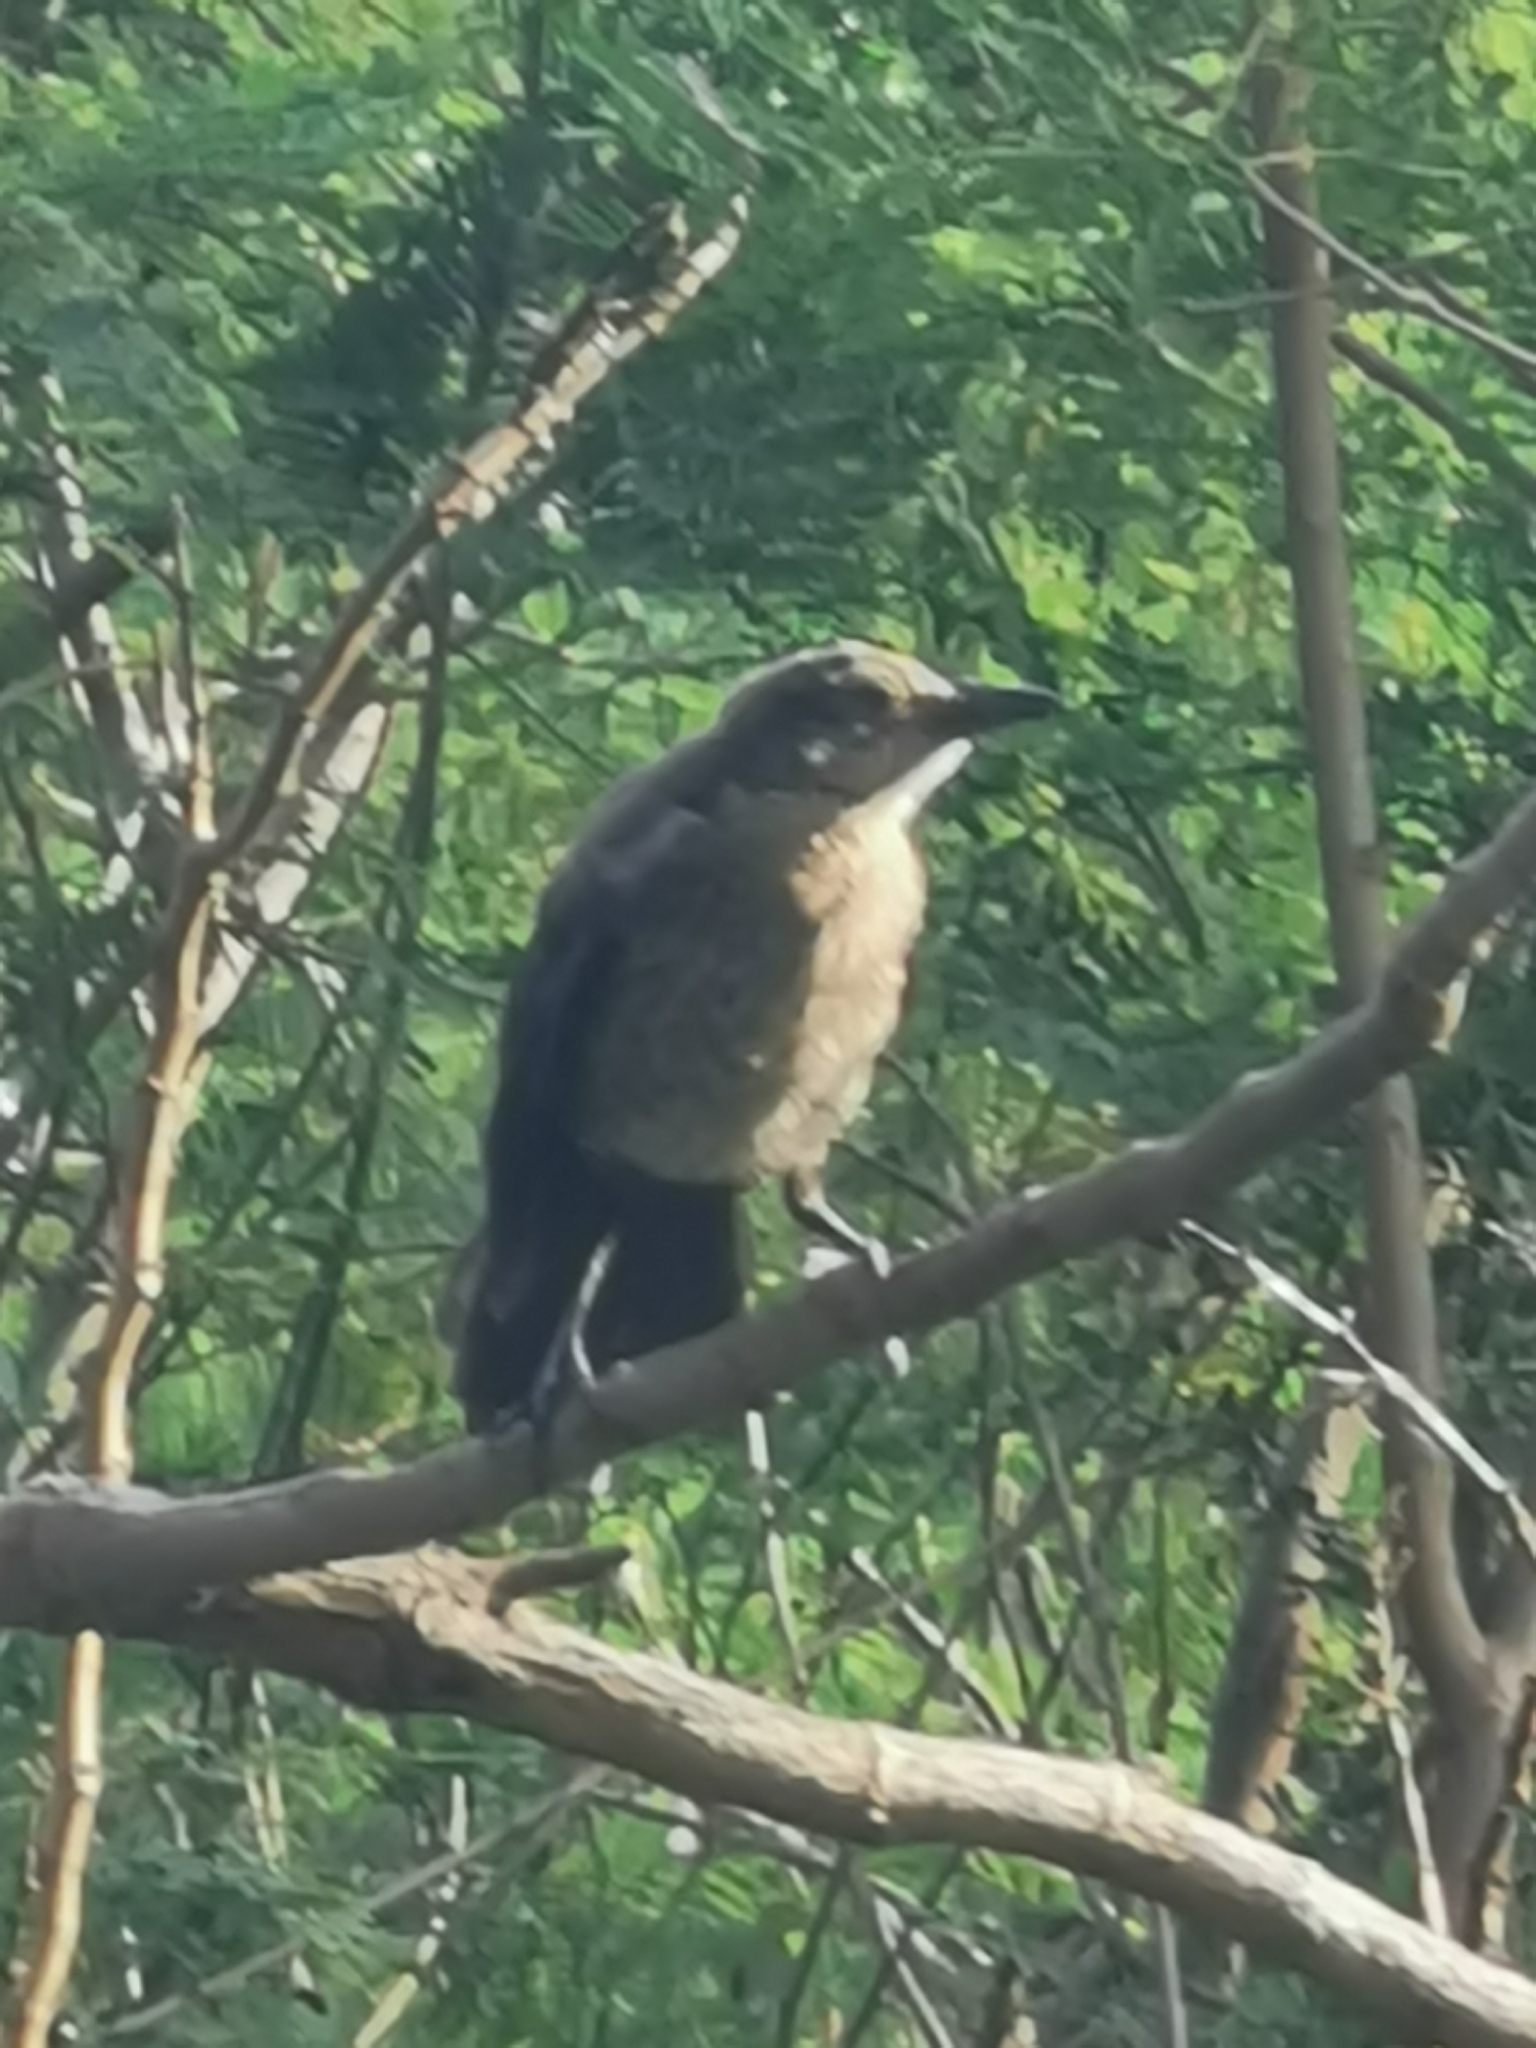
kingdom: Animalia
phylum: Chordata
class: Aves
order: Passeriformes
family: Icteridae
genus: Quiscalus
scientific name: Quiscalus mexicanus
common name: Great-tailed grackle
